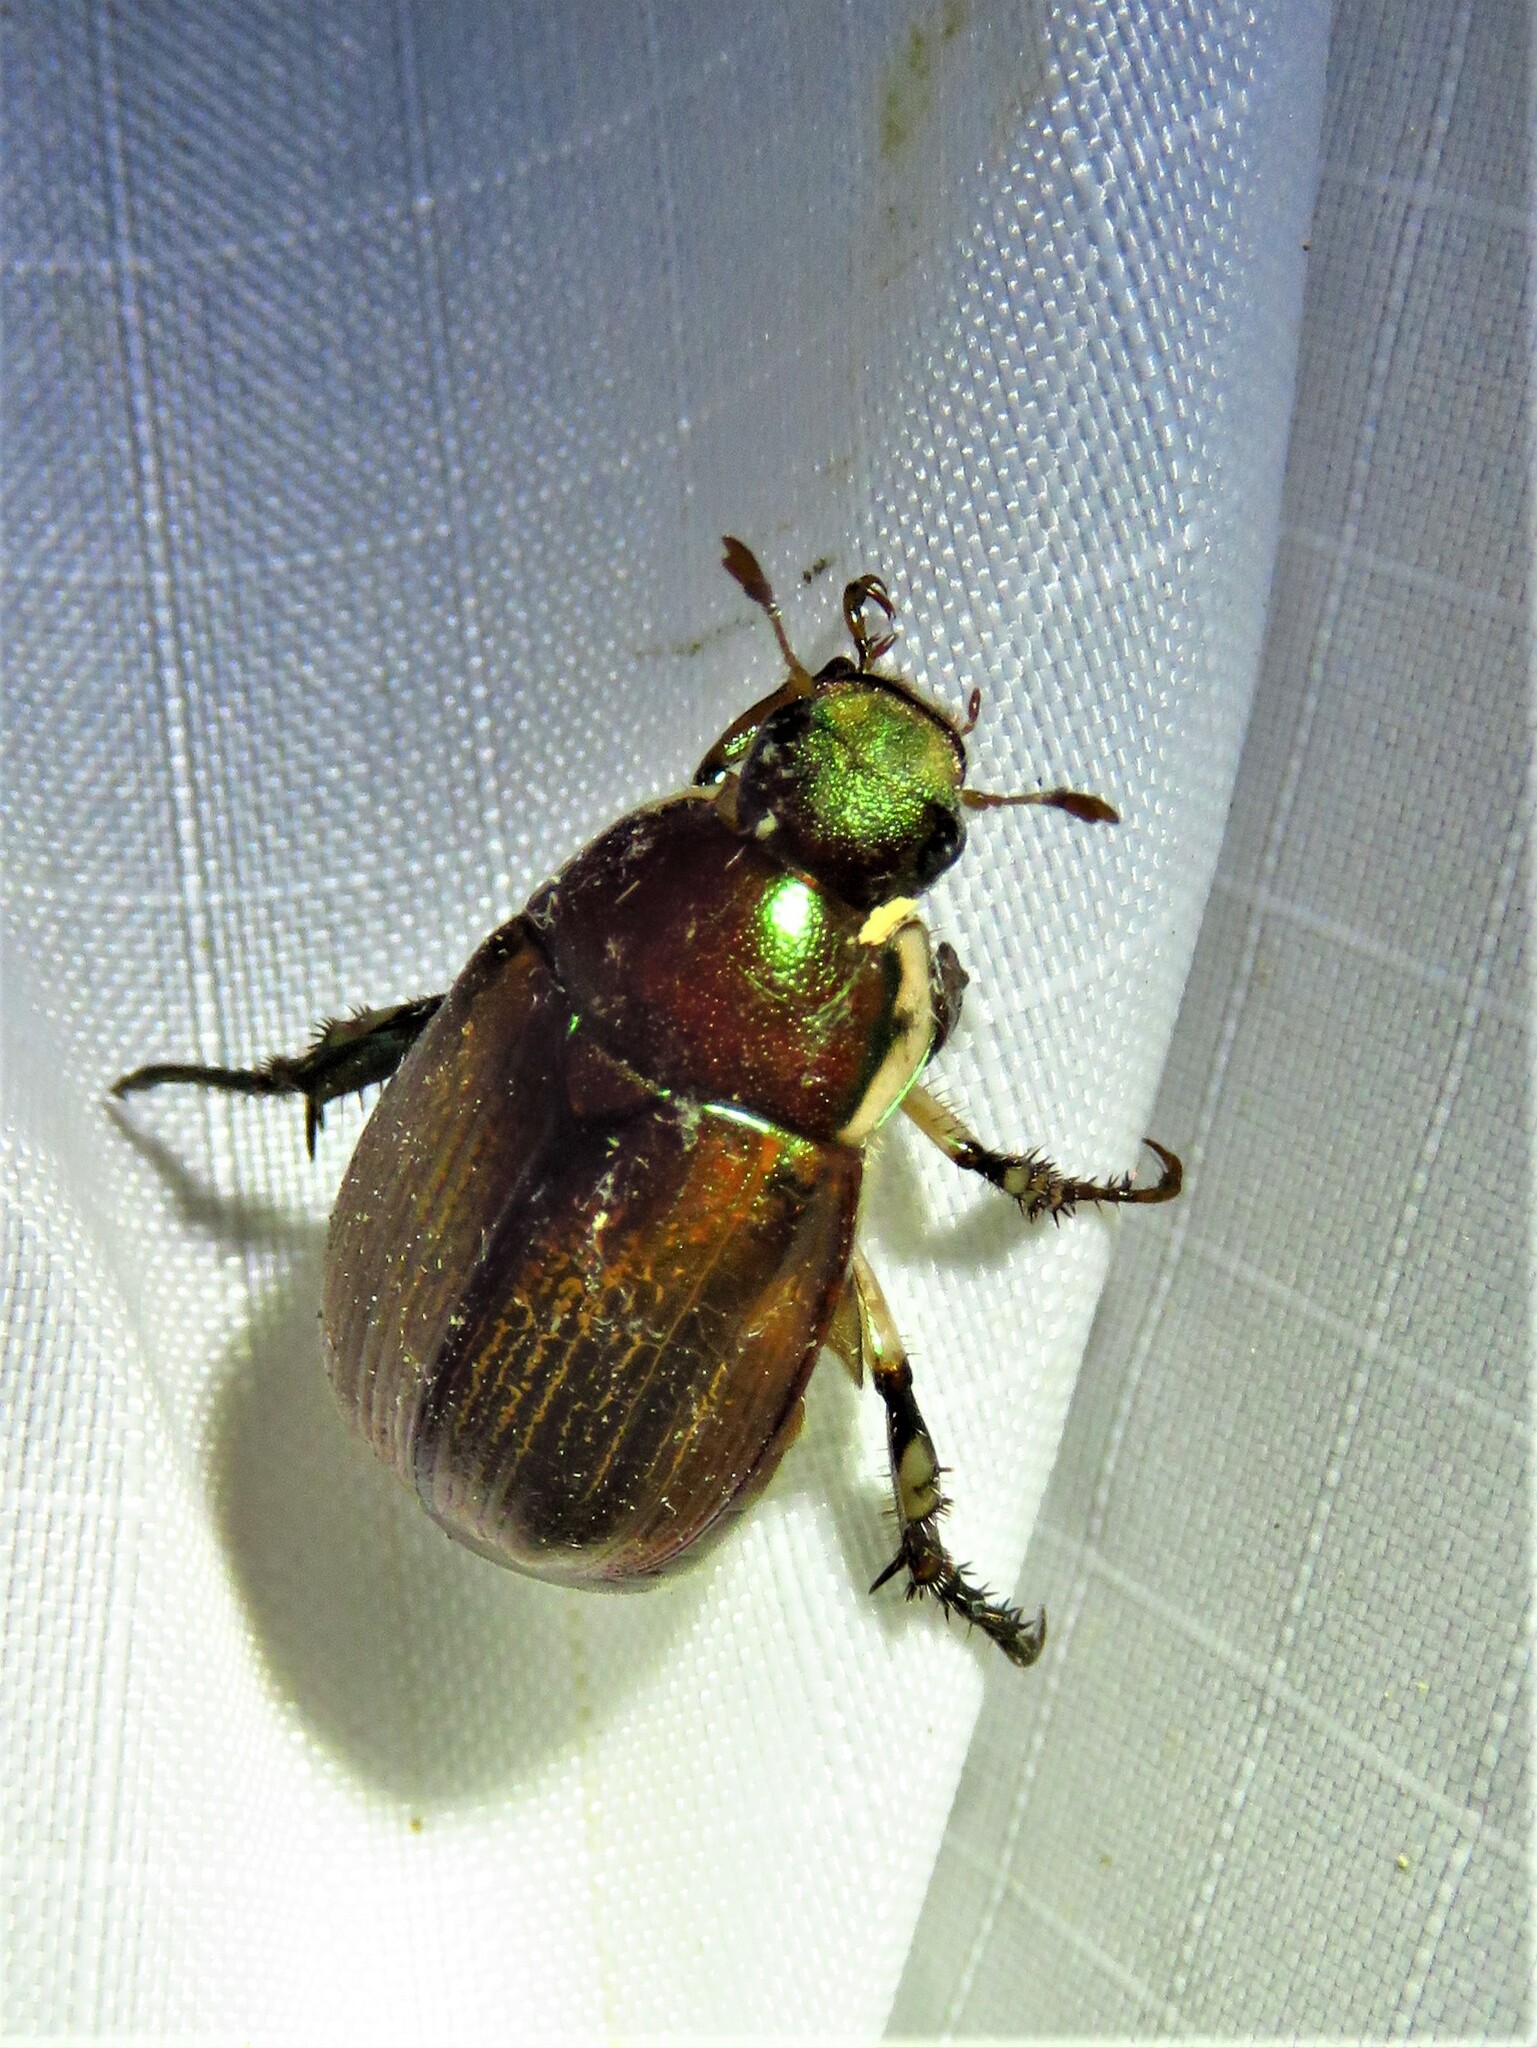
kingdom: Animalia
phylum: Arthropoda
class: Insecta
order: Coleoptera
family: Scarabaeidae
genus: Callistethus
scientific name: Callistethus marginatus
